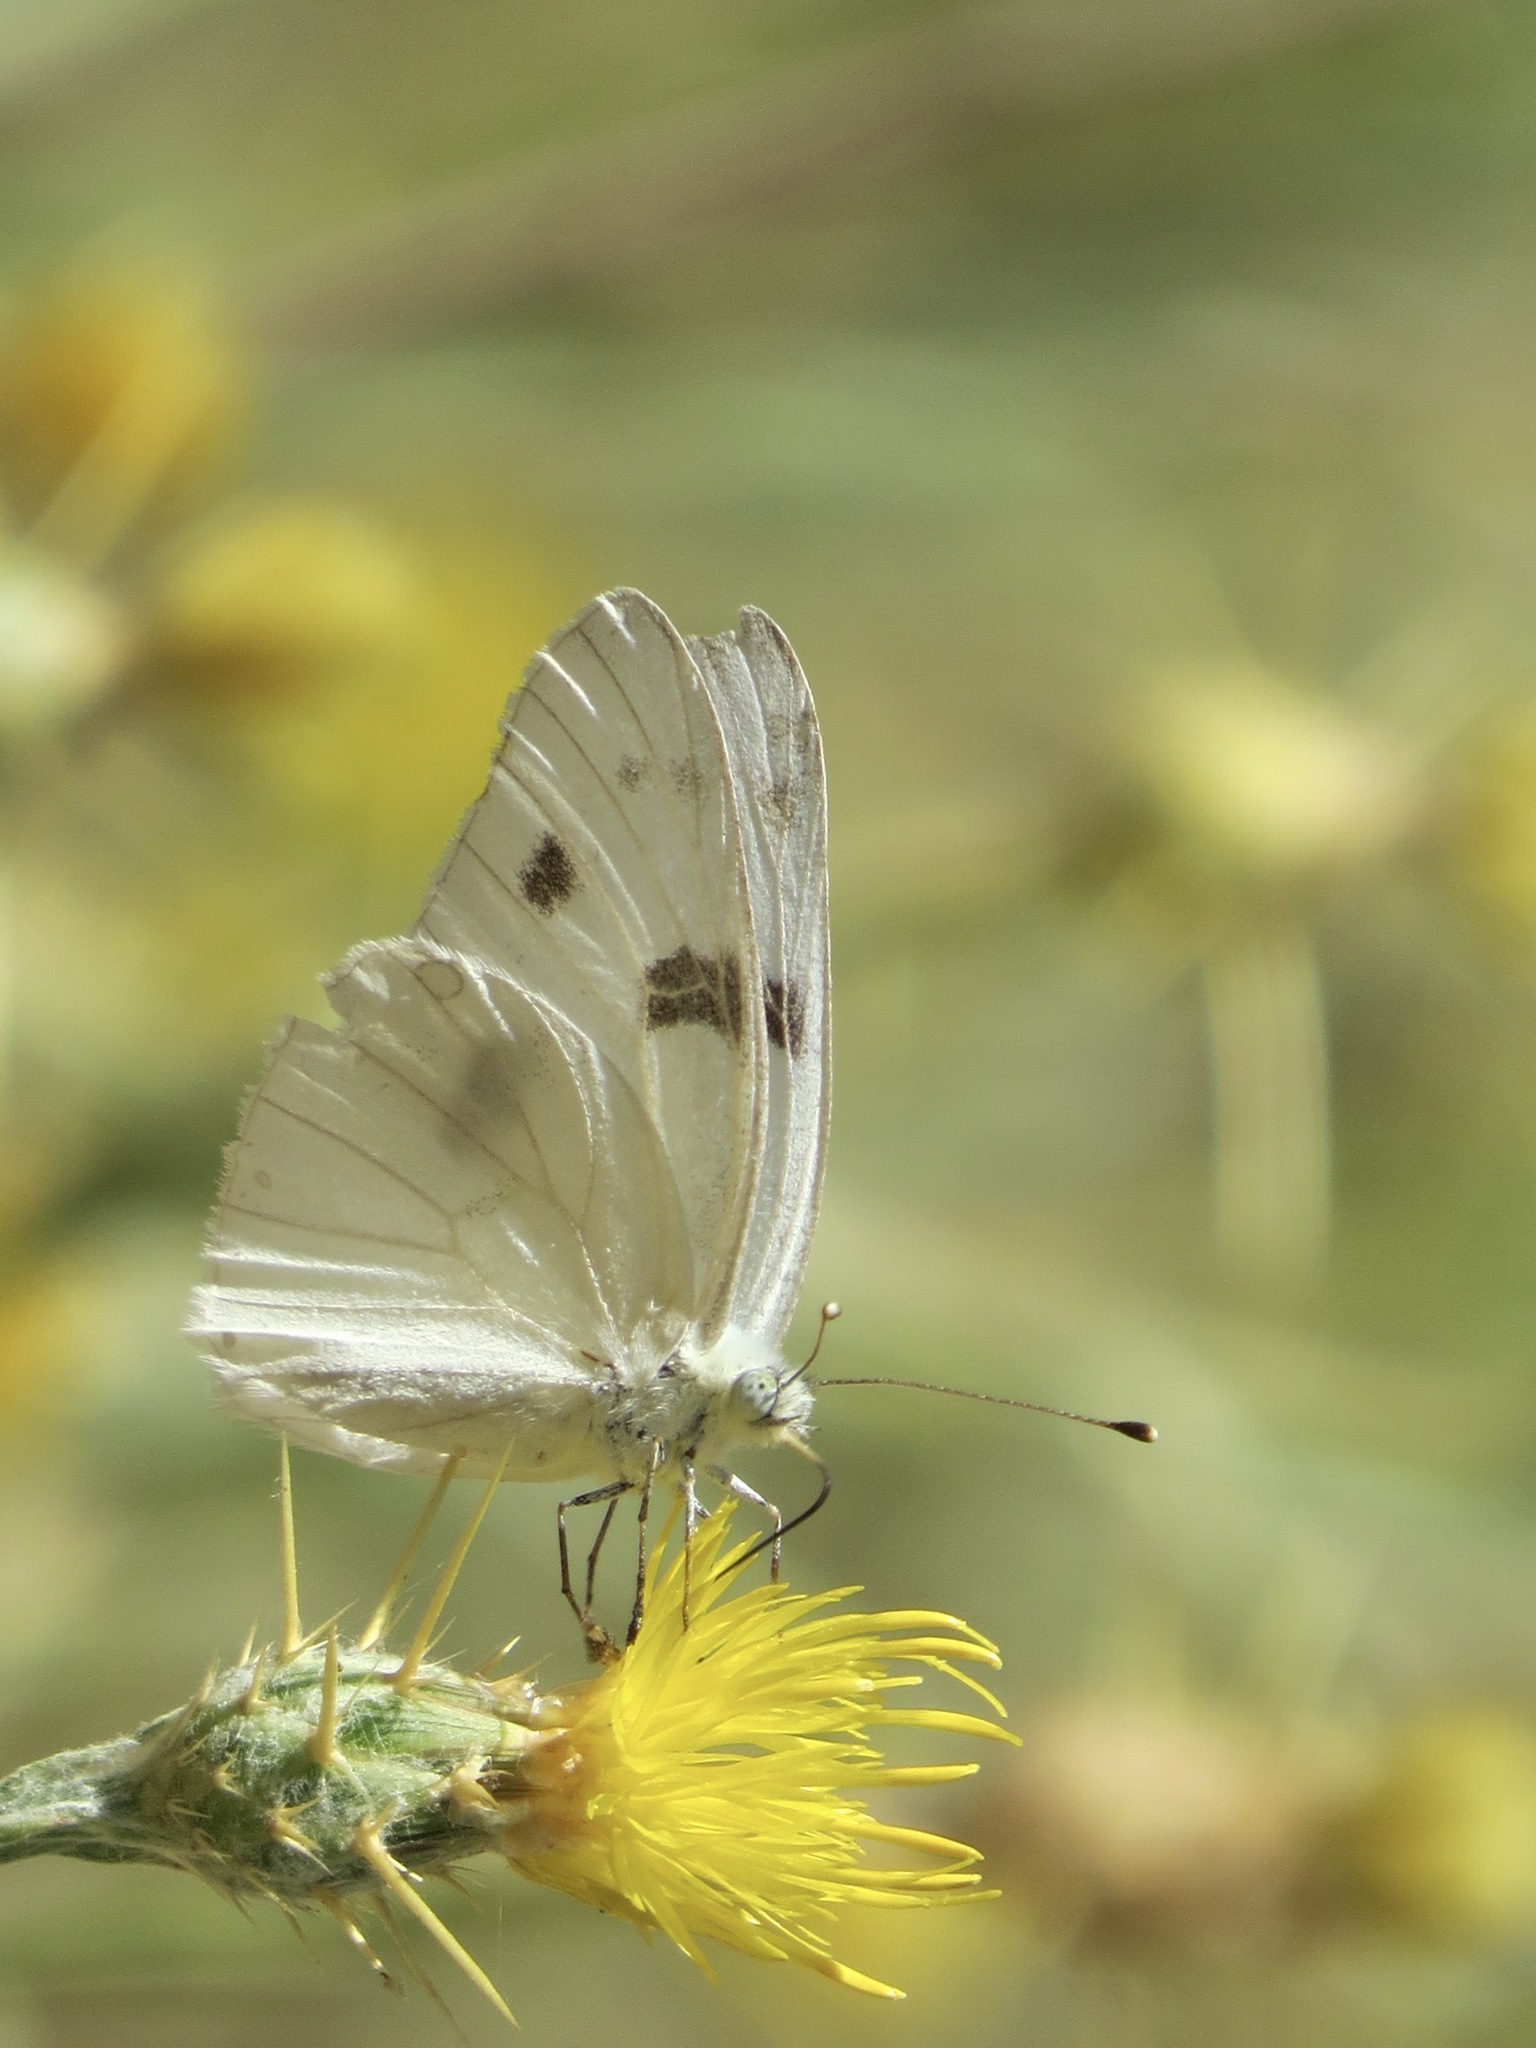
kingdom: Animalia
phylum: Arthropoda
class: Insecta
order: Lepidoptera
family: Pieridae
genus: Pontia
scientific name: Pontia protodice
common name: Checkered white
